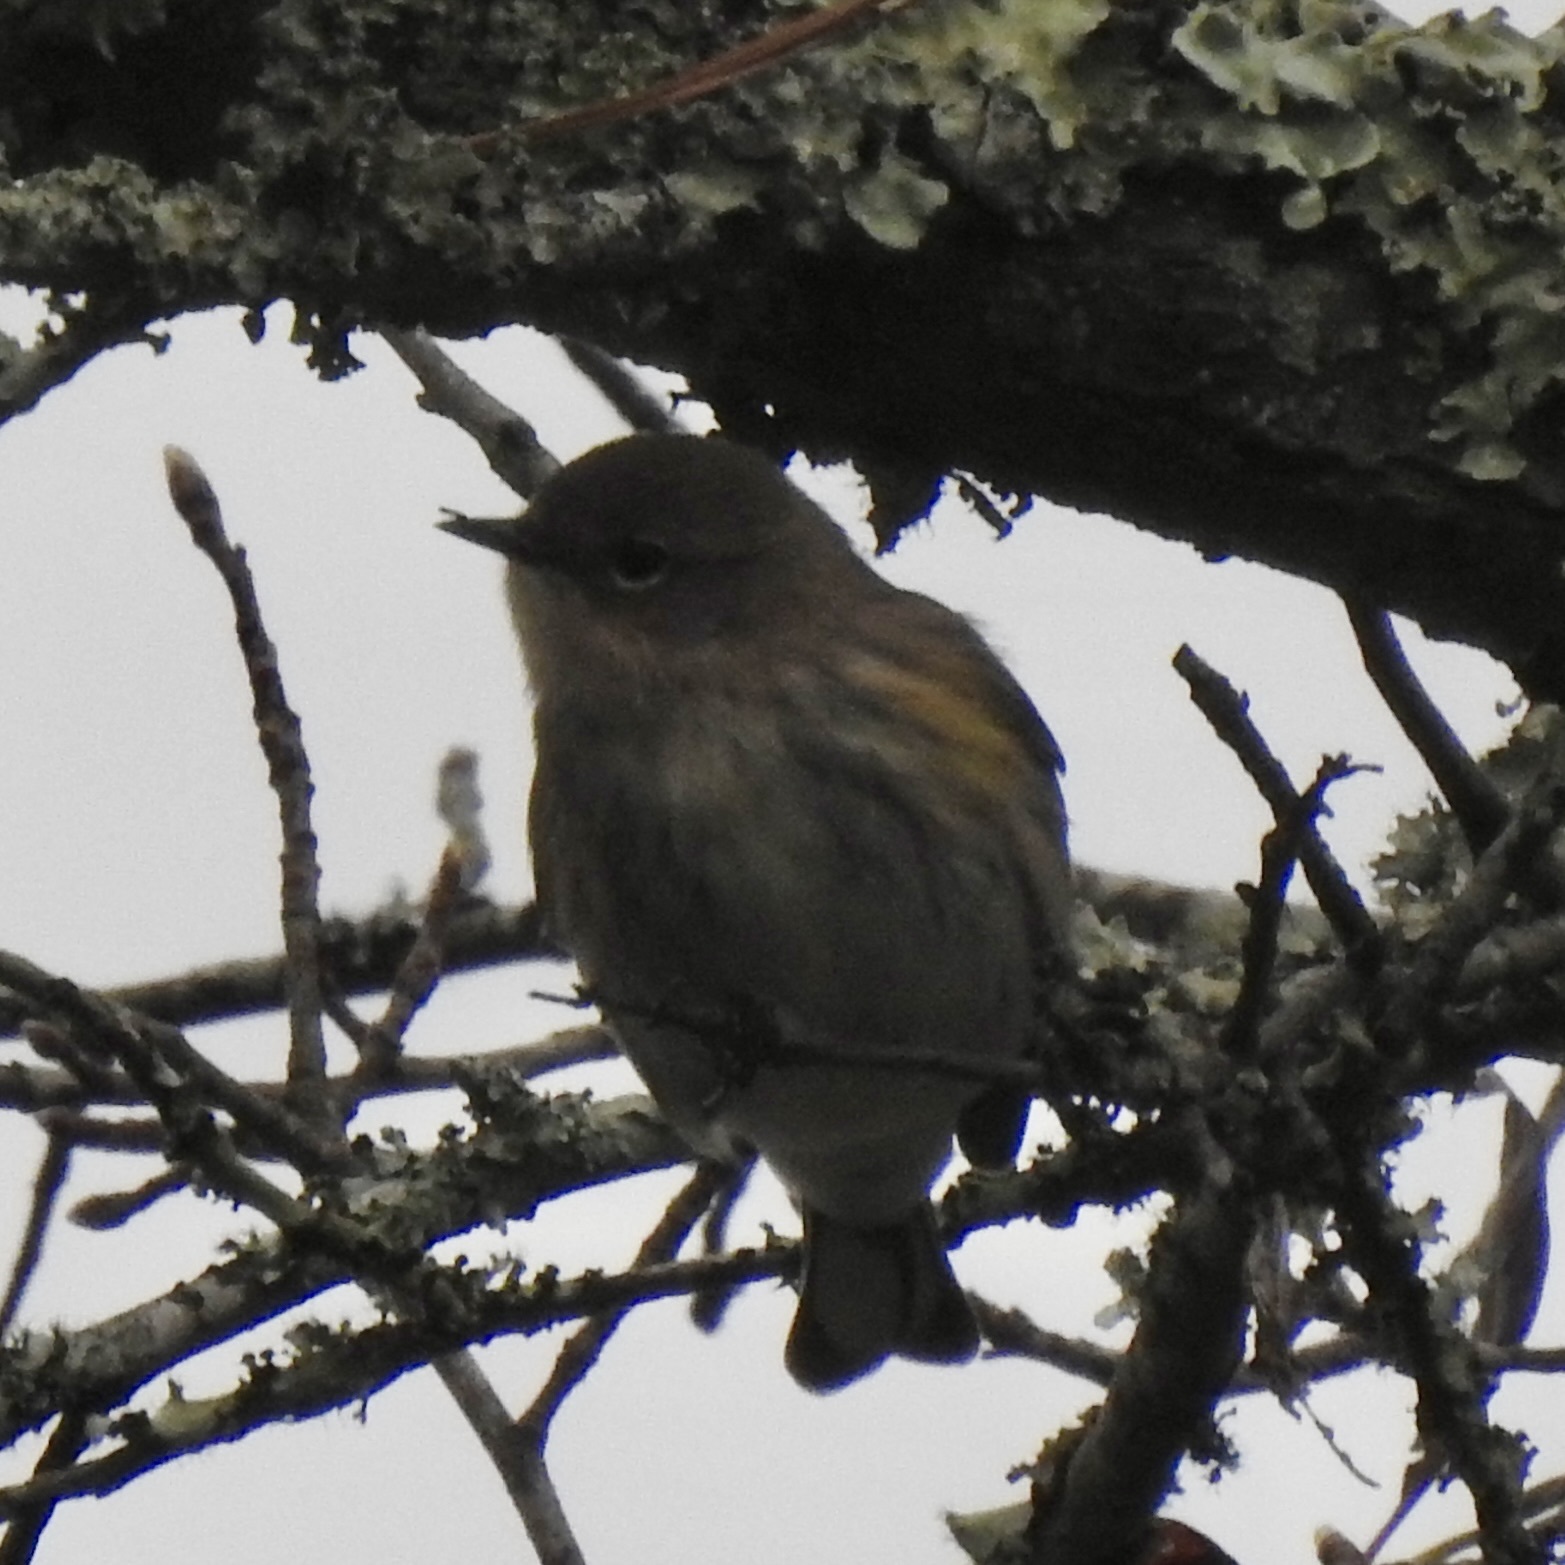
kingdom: Animalia
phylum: Chordata
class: Aves
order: Passeriformes
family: Parulidae
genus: Setophaga
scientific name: Setophaga coronata
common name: Myrtle warbler
